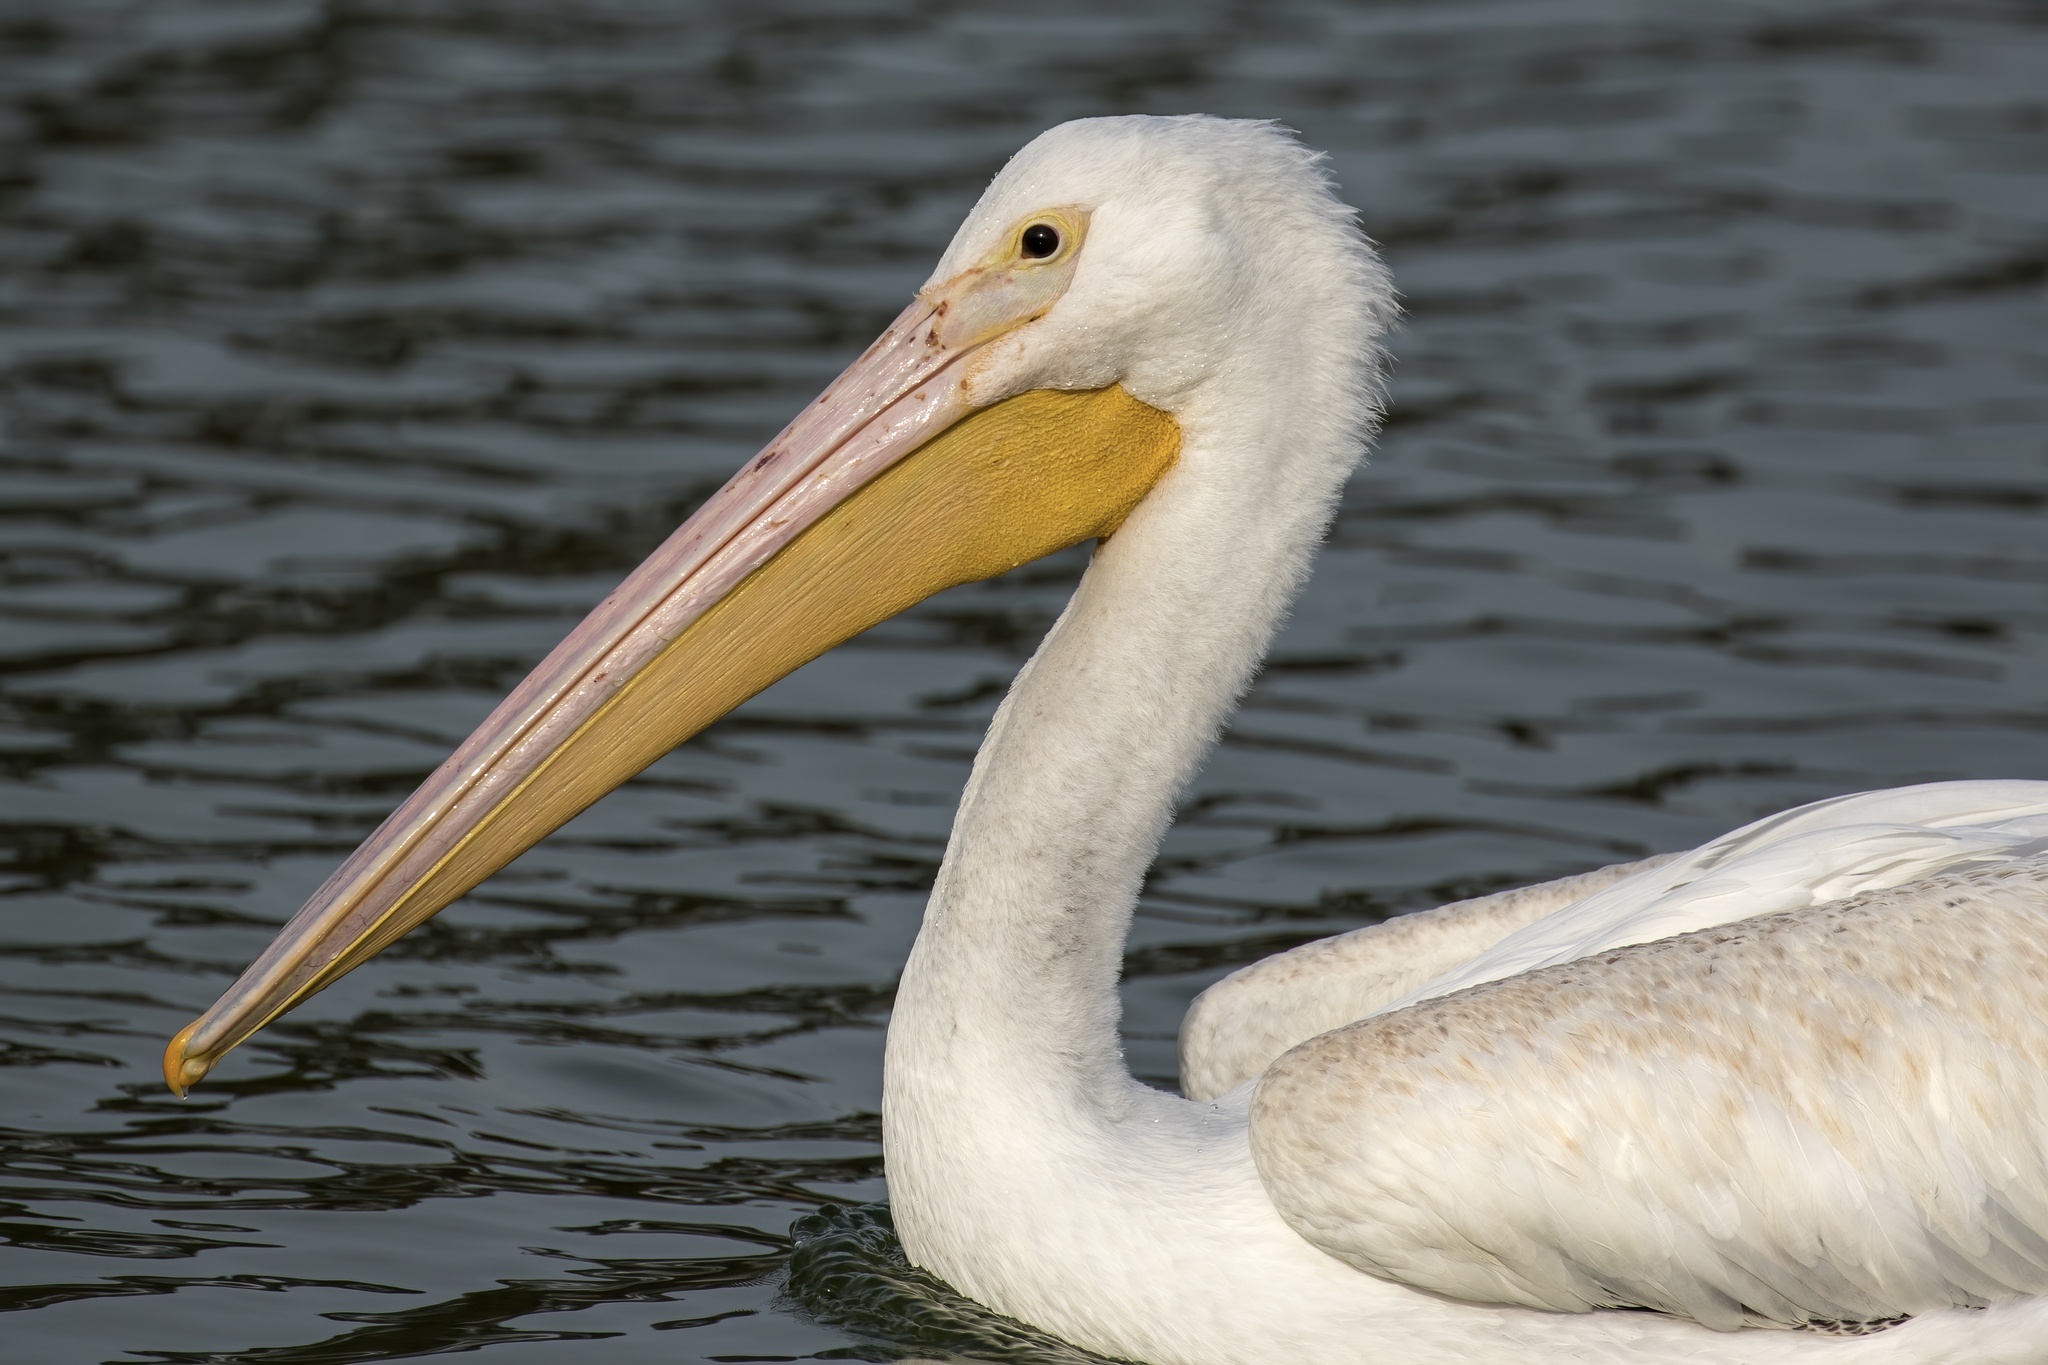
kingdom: Animalia
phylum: Chordata
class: Aves
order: Pelecaniformes
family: Pelecanidae
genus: Pelecanus
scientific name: Pelecanus erythrorhynchos
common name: American white pelican
